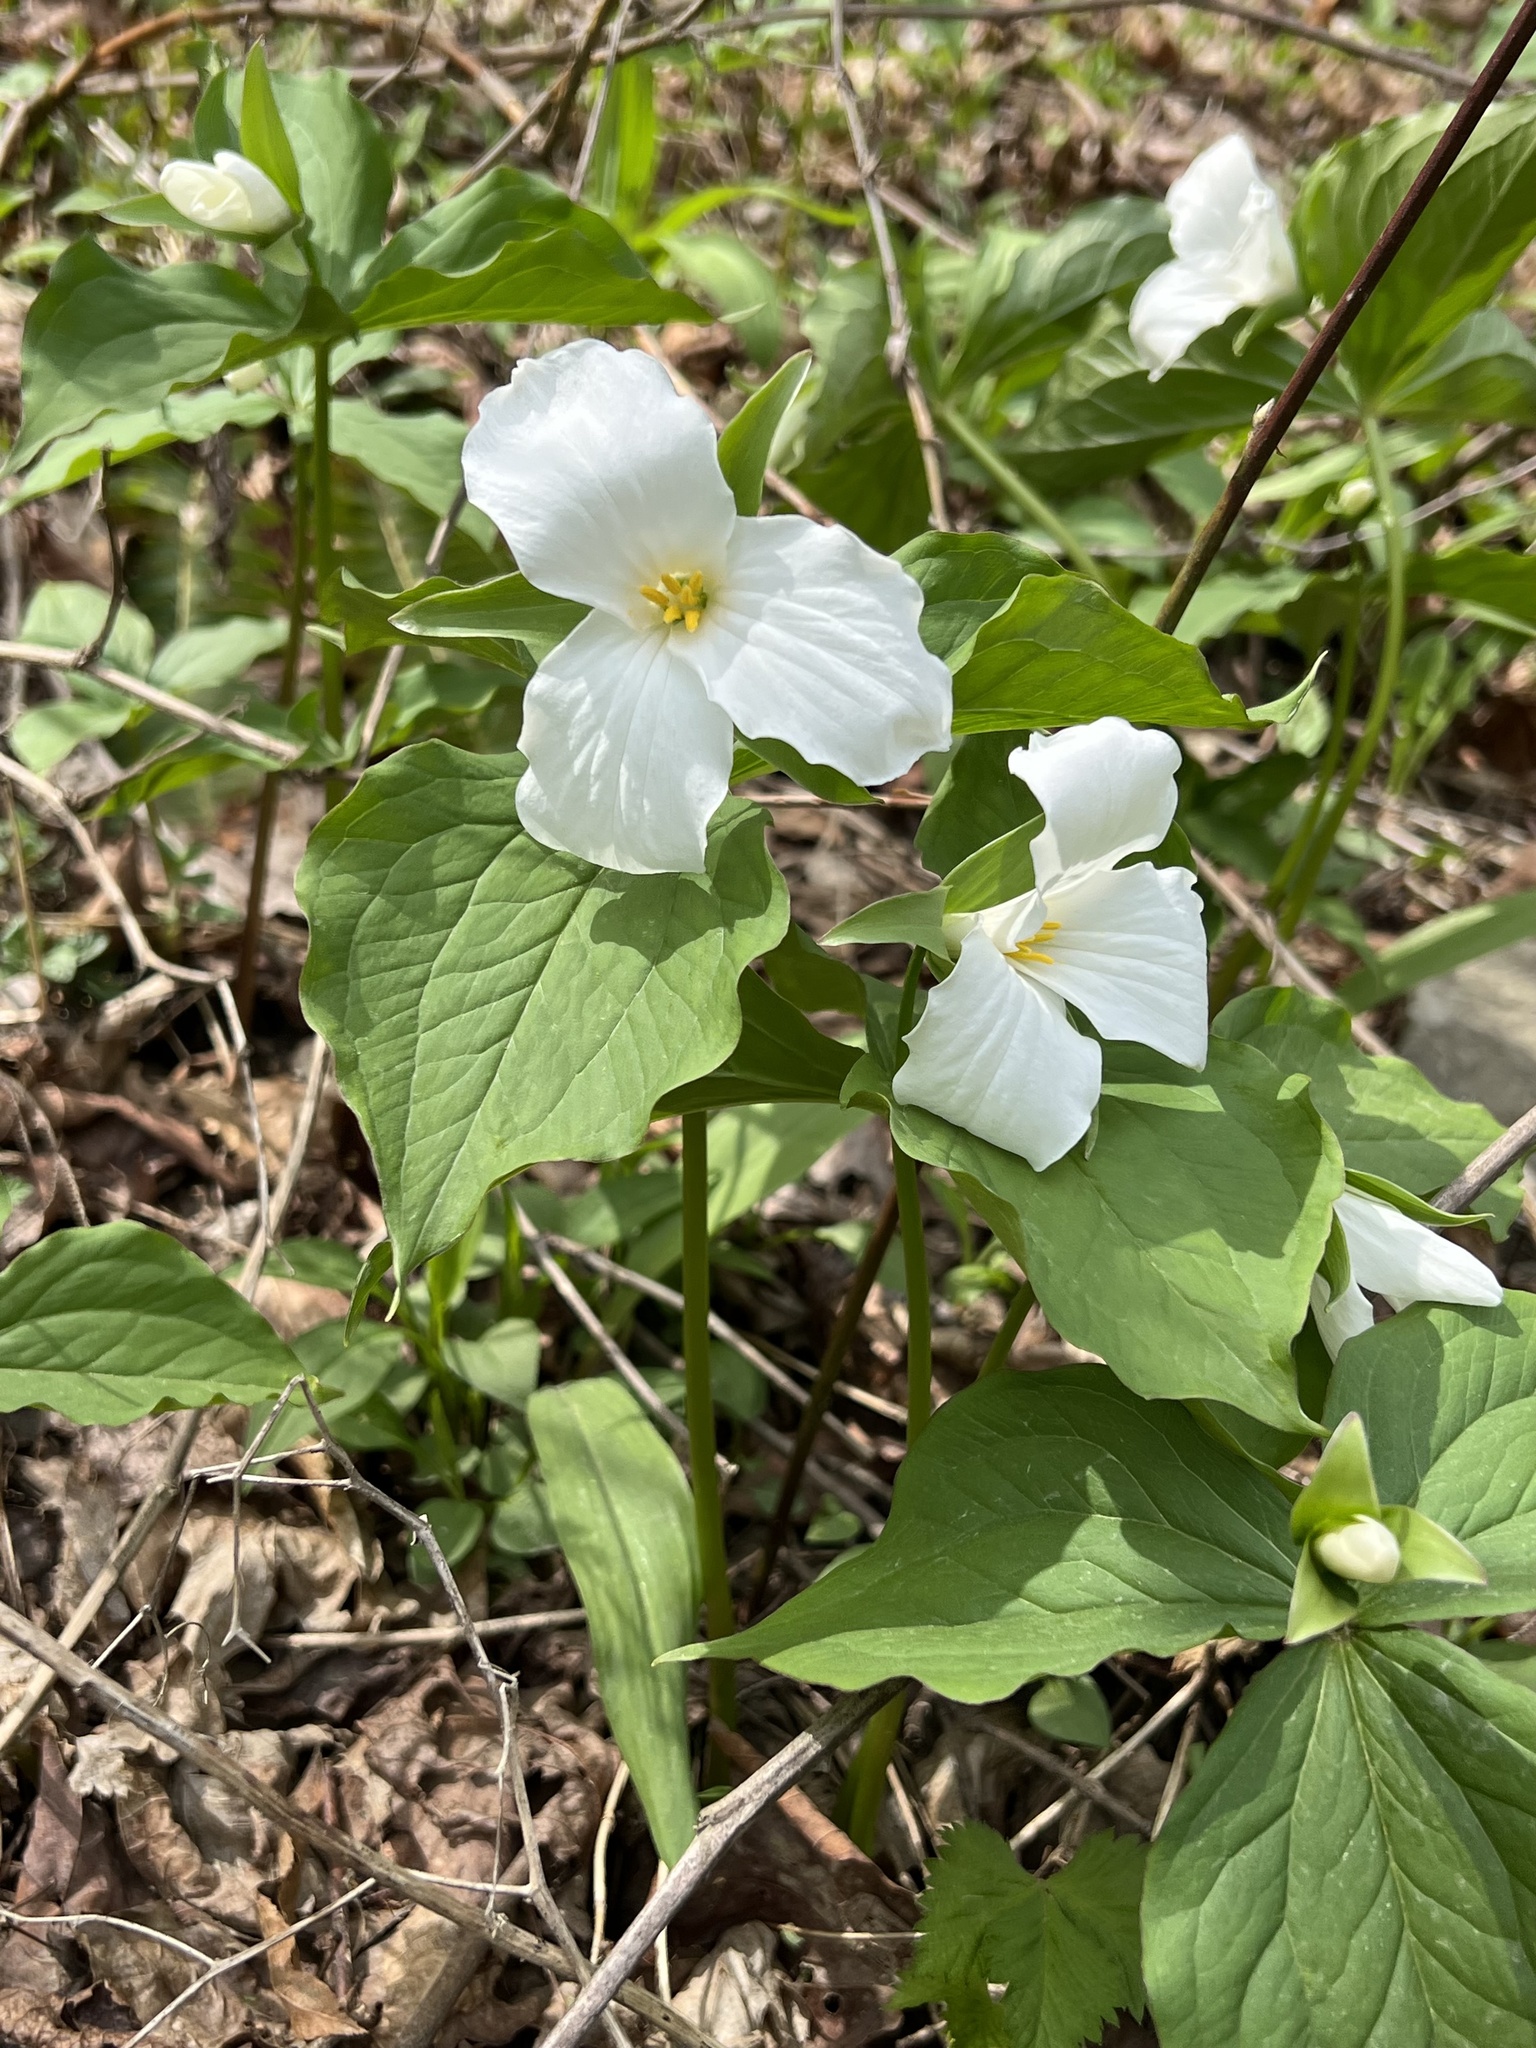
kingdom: Plantae
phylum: Tracheophyta
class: Liliopsida
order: Liliales
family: Melanthiaceae
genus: Trillium
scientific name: Trillium grandiflorum
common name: Great white trillium
